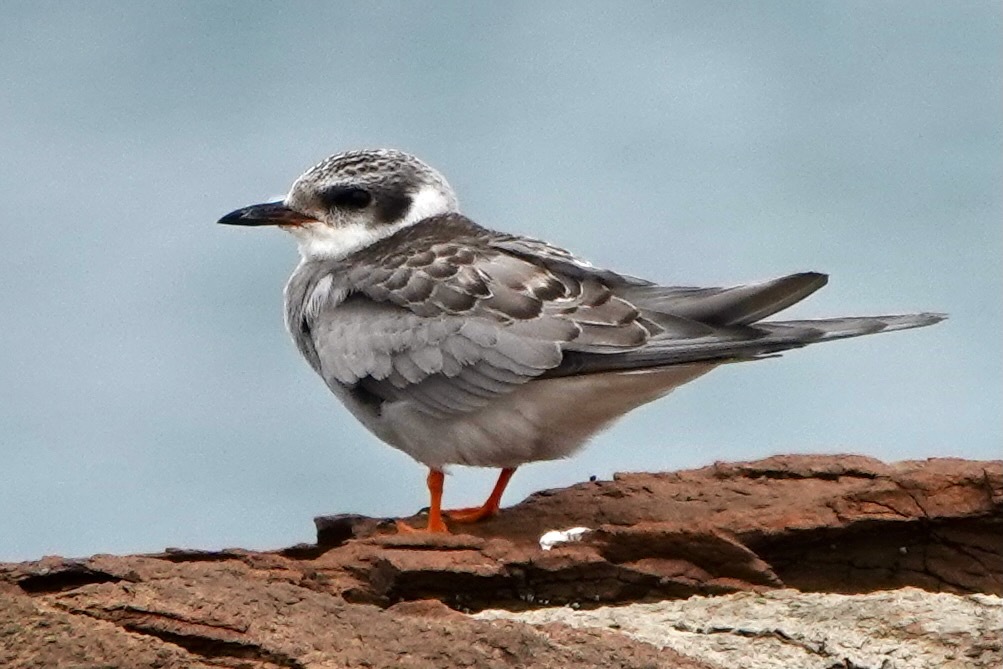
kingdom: Animalia
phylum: Chordata
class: Aves
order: Charadriiformes
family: Laridae
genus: Chlidonias
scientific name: Chlidonias albostriatus
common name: Black-fronted tern
